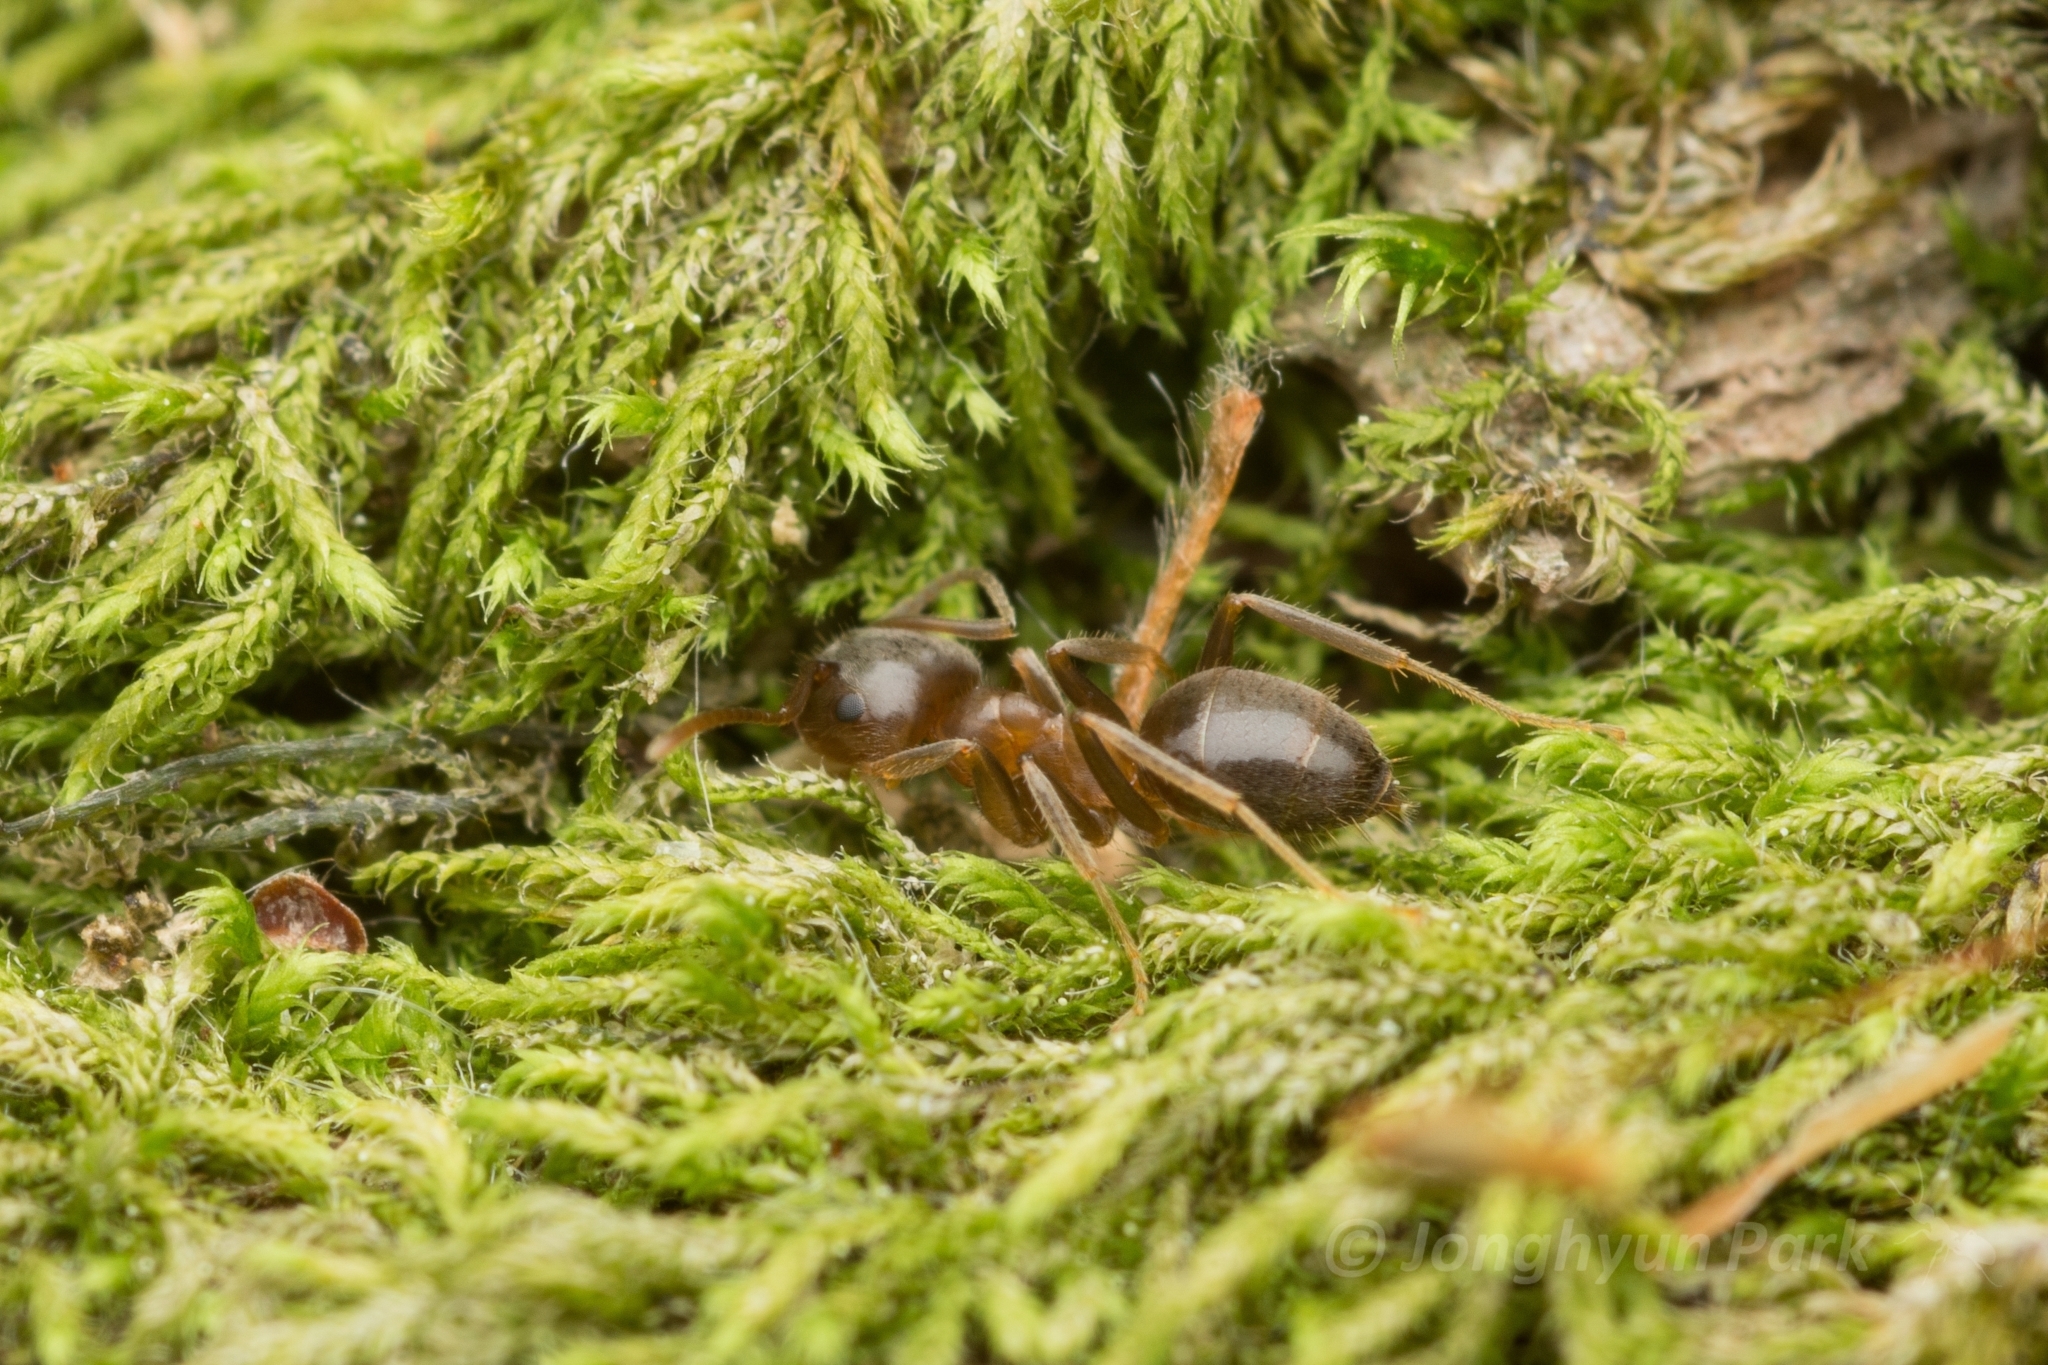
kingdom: Animalia
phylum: Arthropoda
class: Insecta
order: Hymenoptera
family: Formicidae
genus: Lasius
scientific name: Lasius hayashi
